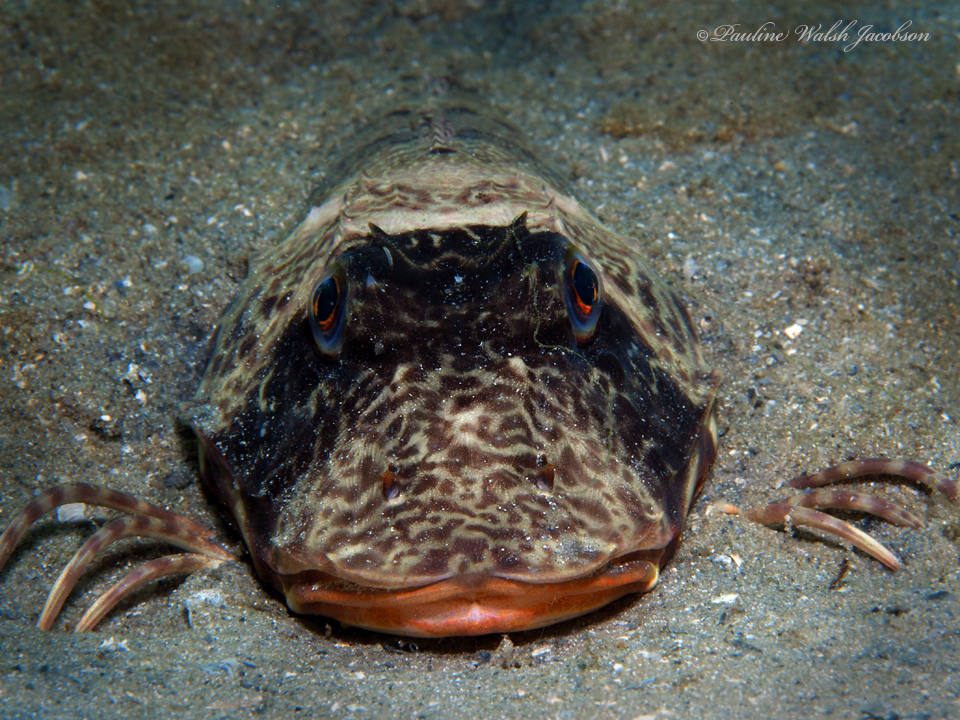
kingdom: Animalia
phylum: Chordata
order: Scorpaeniformes
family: Triglidae
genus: Prionotus
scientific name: Prionotus tribulus
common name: Bighead searobin
